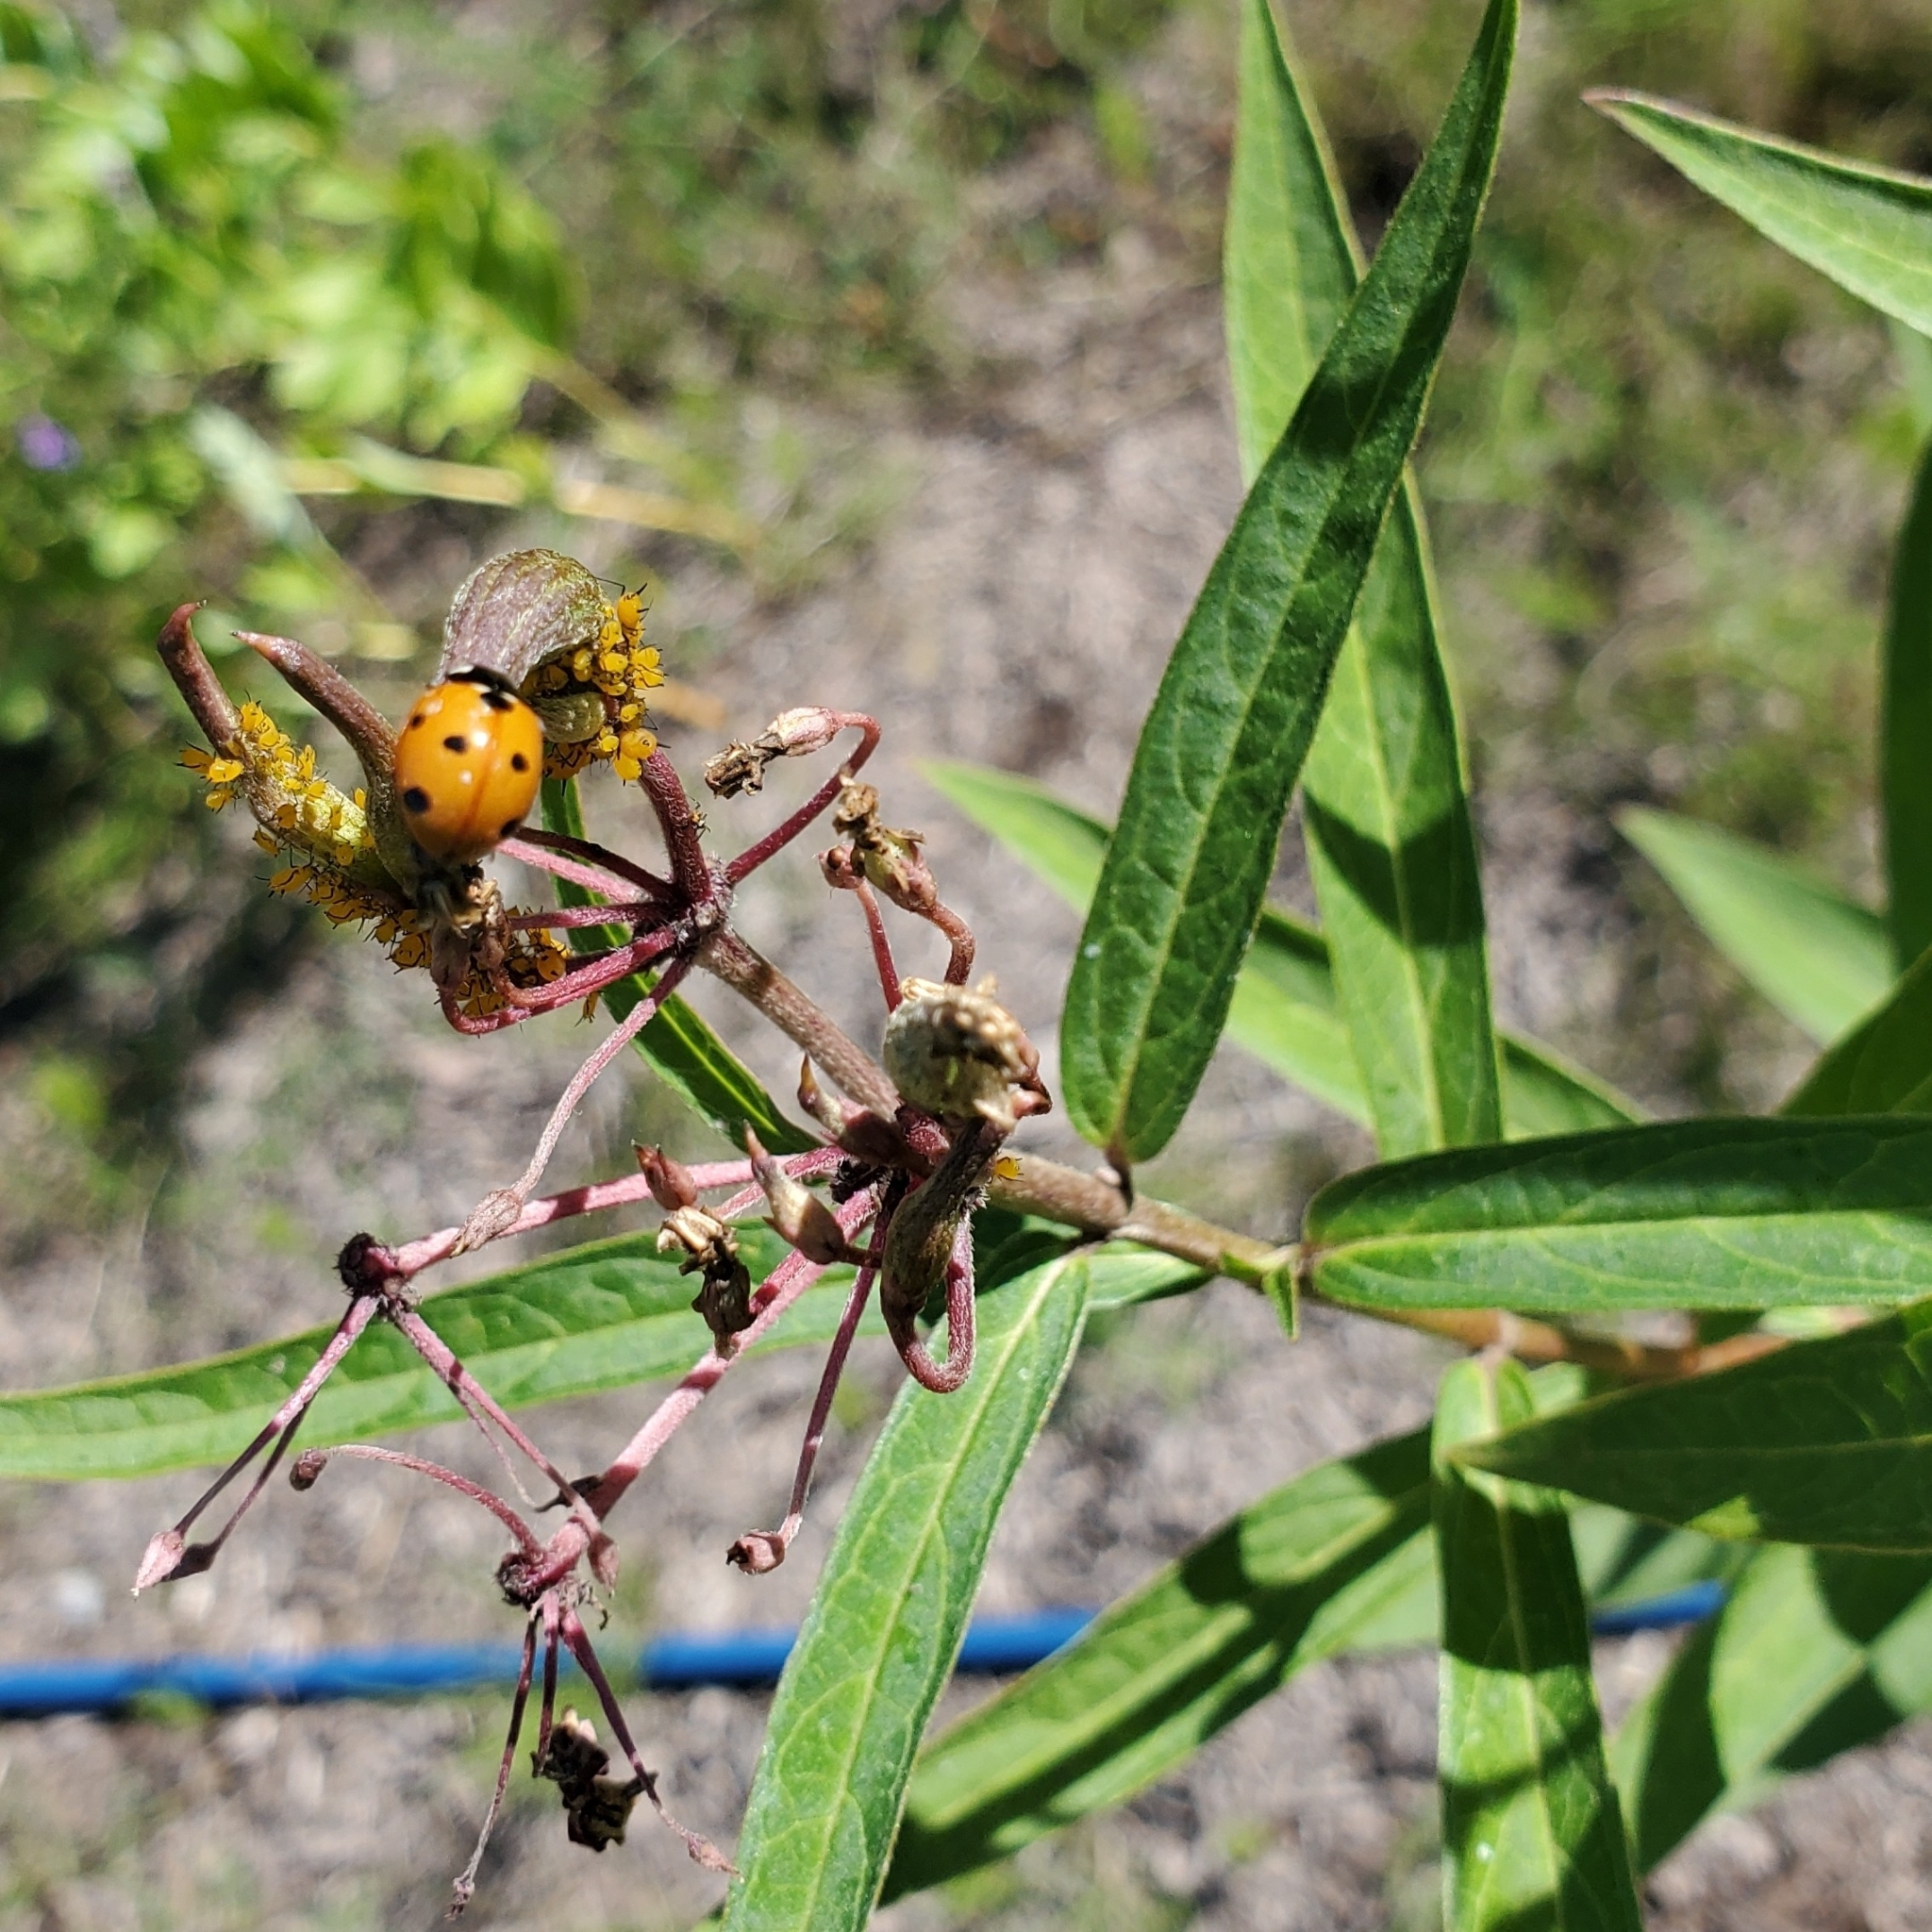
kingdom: Animalia
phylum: Arthropoda
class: Insecta
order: Coleoptera
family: Coccinellidae
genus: Coccinella
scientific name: Coccinella septempunctata
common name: Sevenspotted lady beetle
